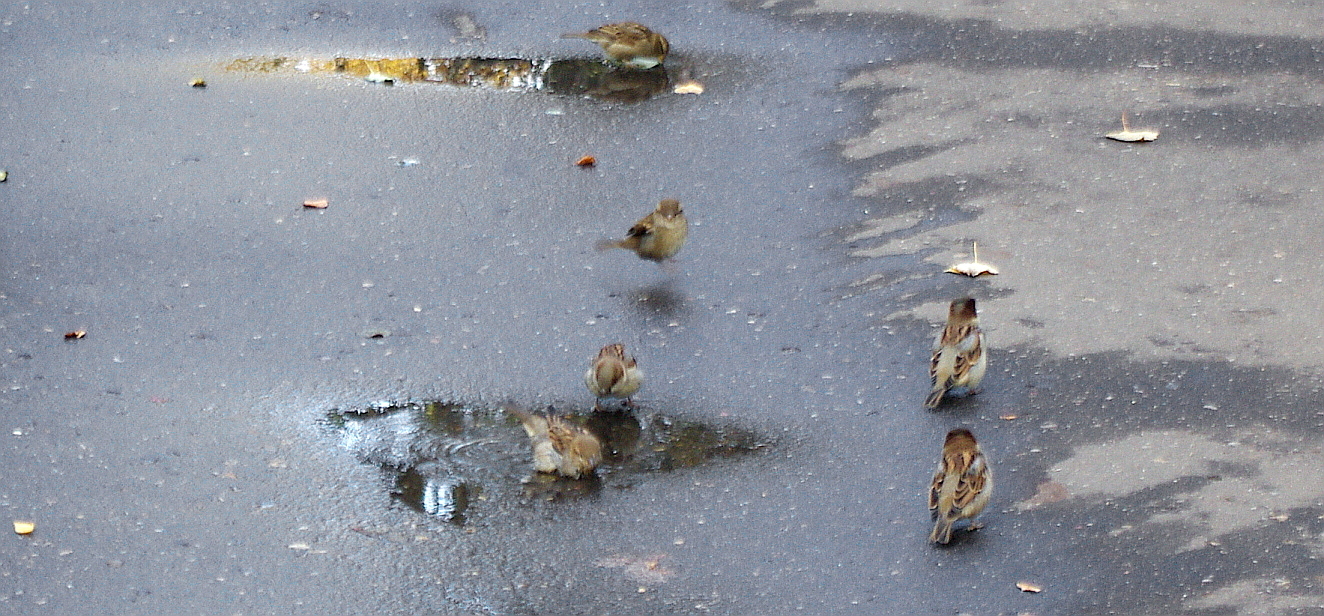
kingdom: Animalia
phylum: Chordata
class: Aves
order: Passeriformes
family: Passeridae
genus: Passer
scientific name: Passer domesticus
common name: House sparrow
